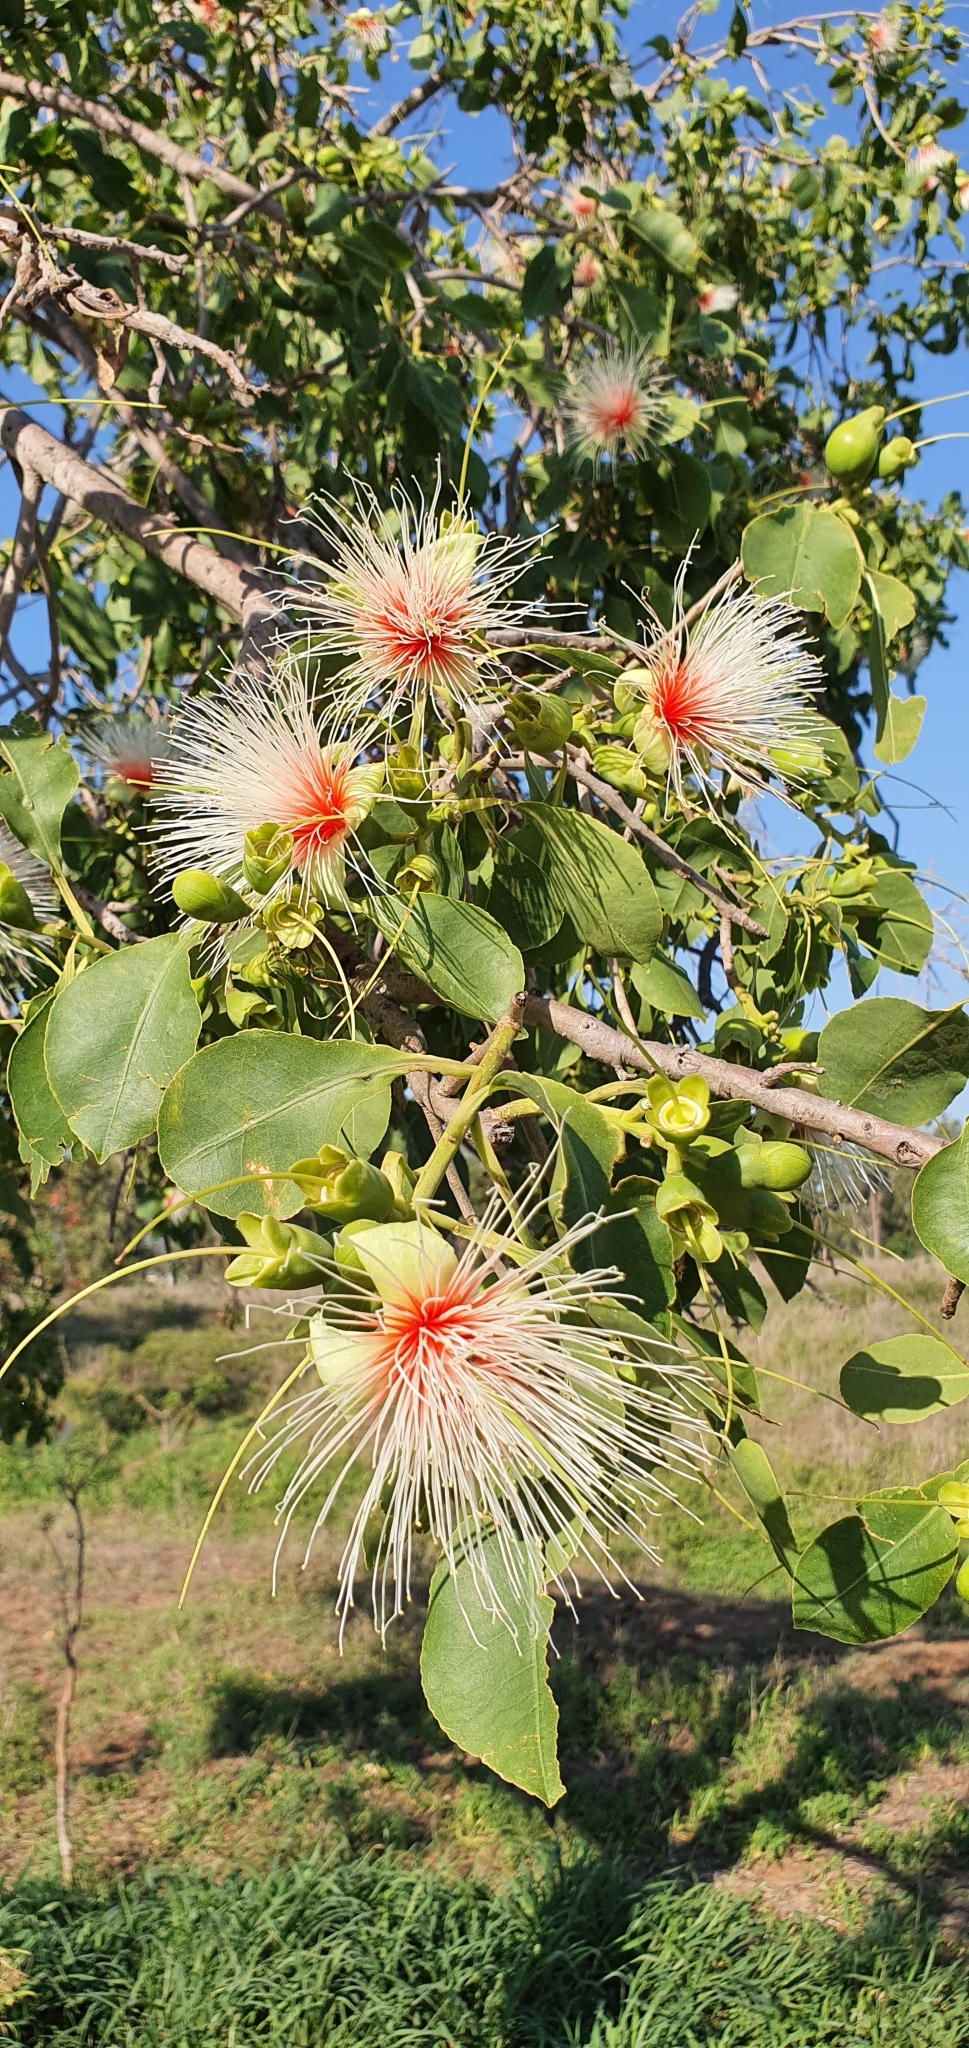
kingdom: Plantae
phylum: Tracheophyta
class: Magnoliopsida
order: Ericales
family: Lecythidaceae
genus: Planchonia
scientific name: Planchonia careya
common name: Cockatoo-apple
